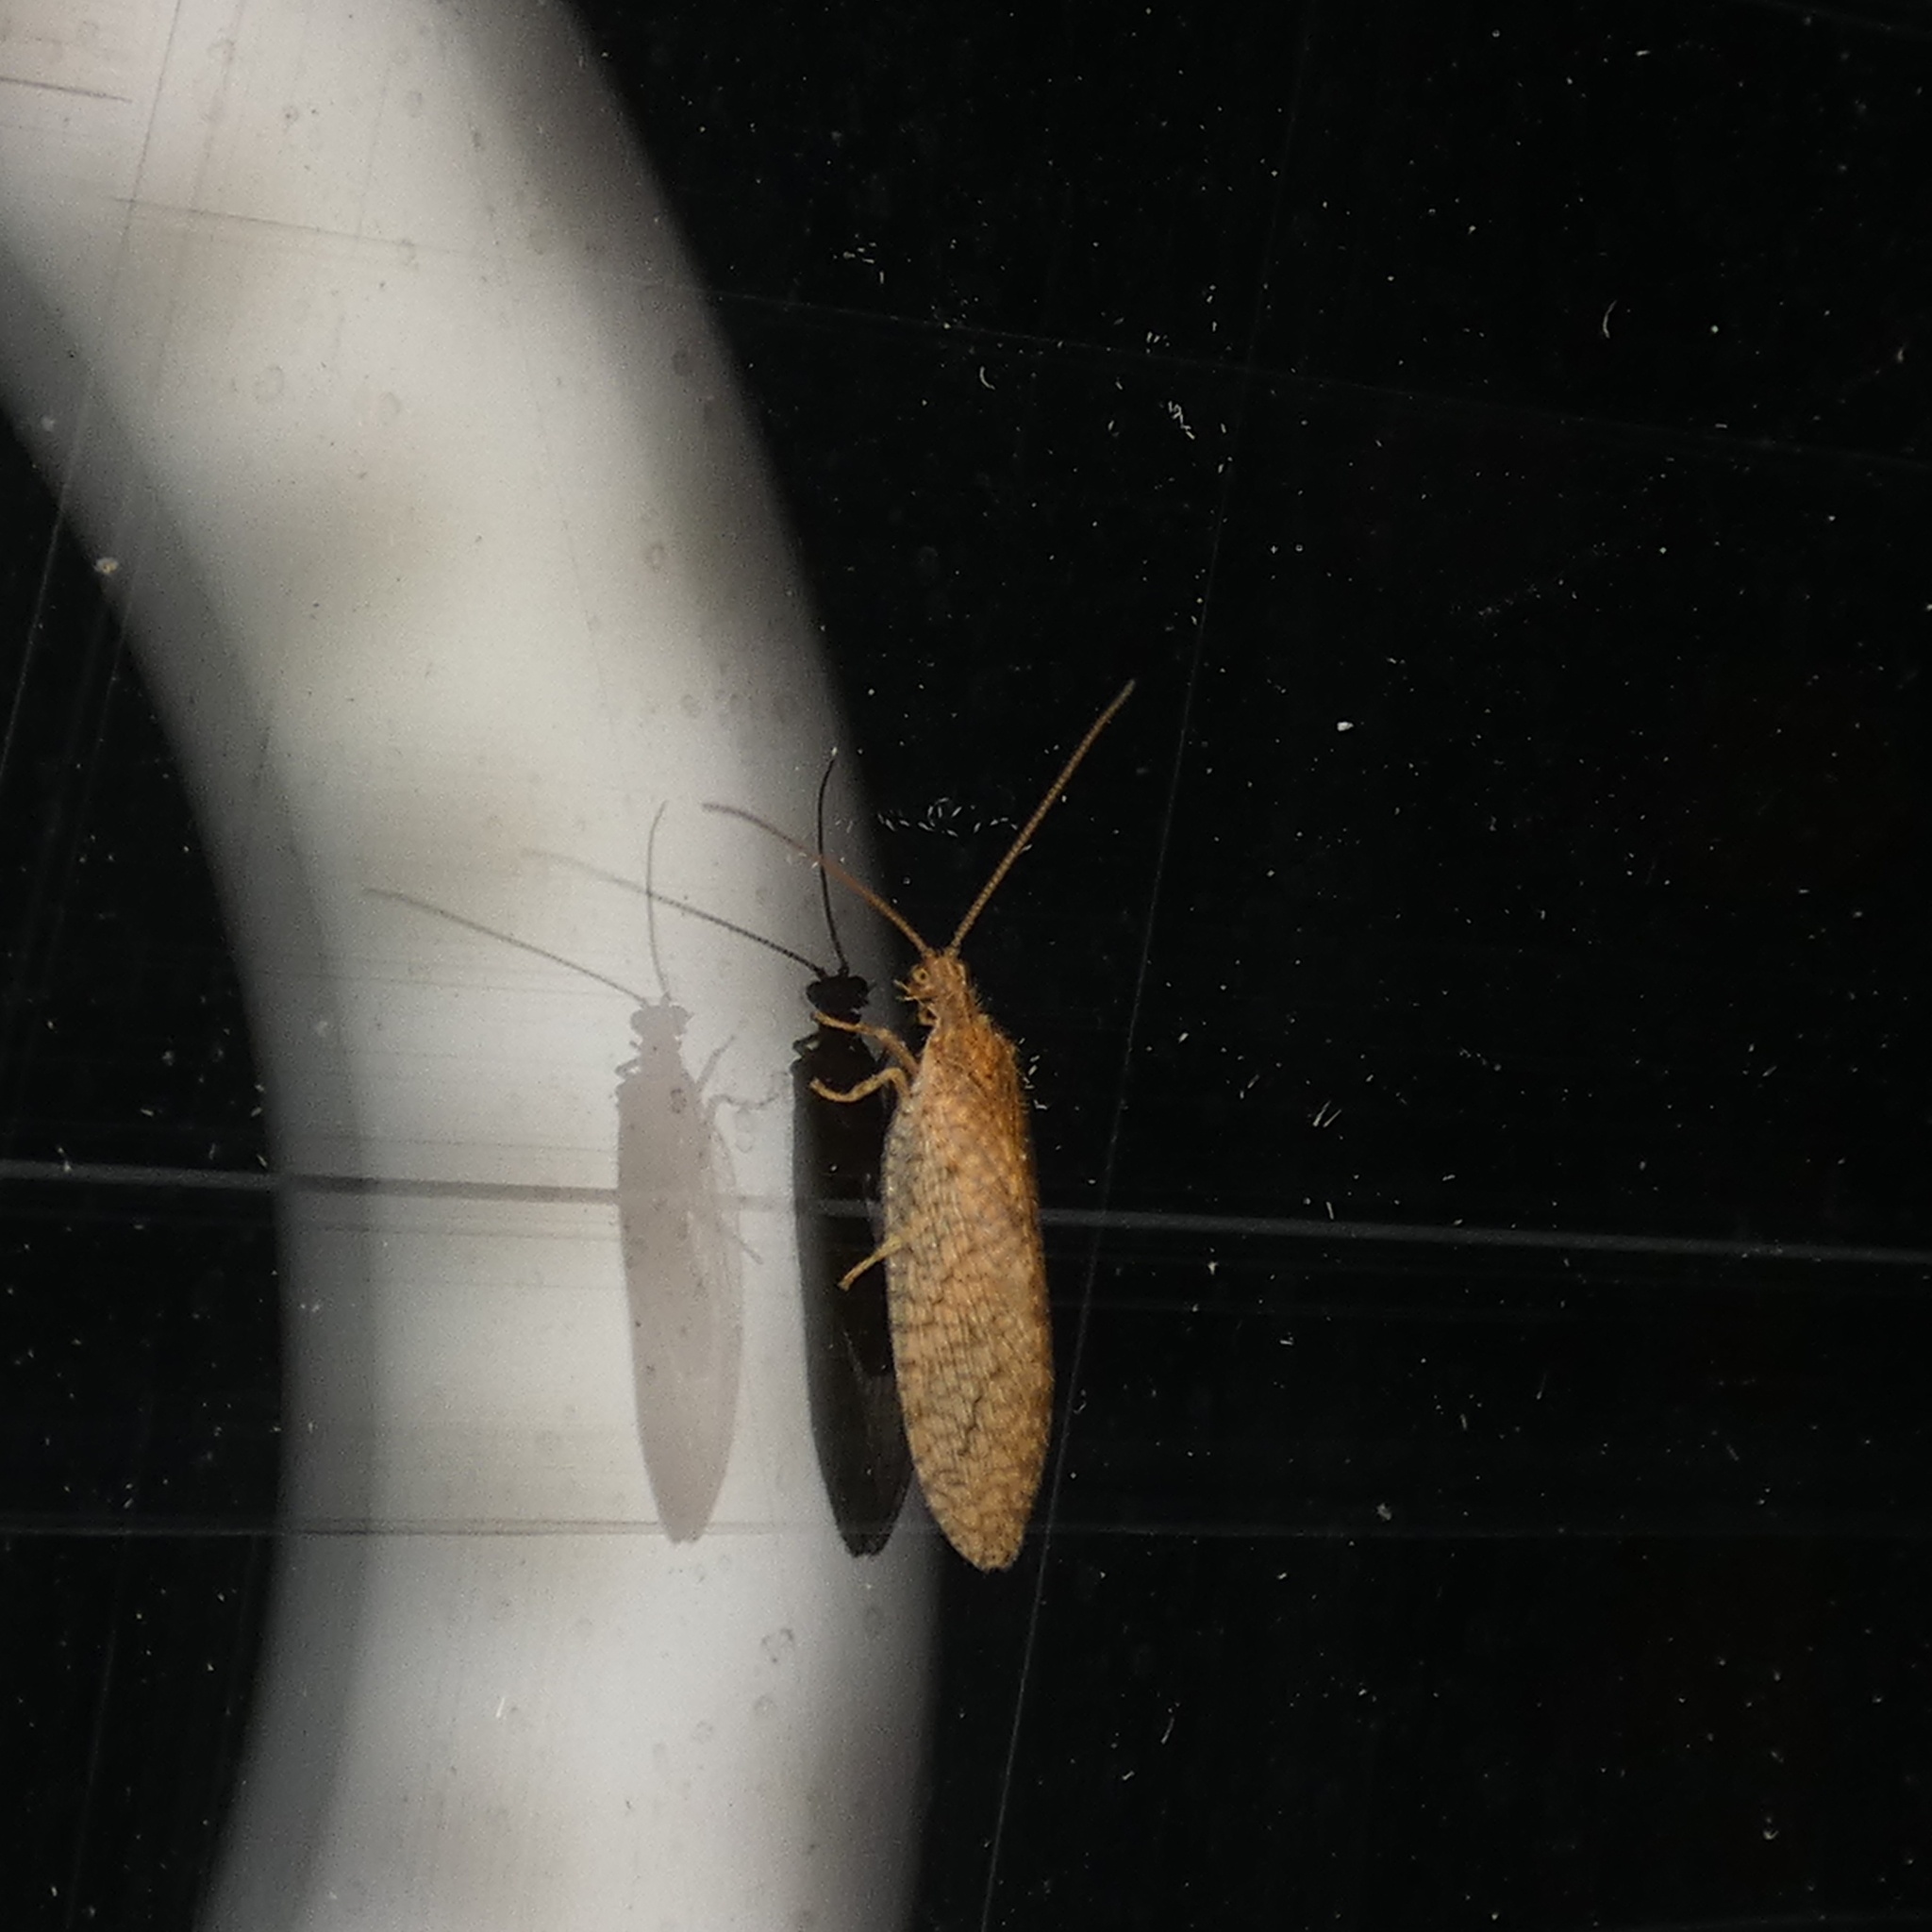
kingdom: Animalia
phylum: Arthropoda
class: Insecta
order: Neuroptera
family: Hemerobiidae
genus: Micromus
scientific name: Micromus posticus
